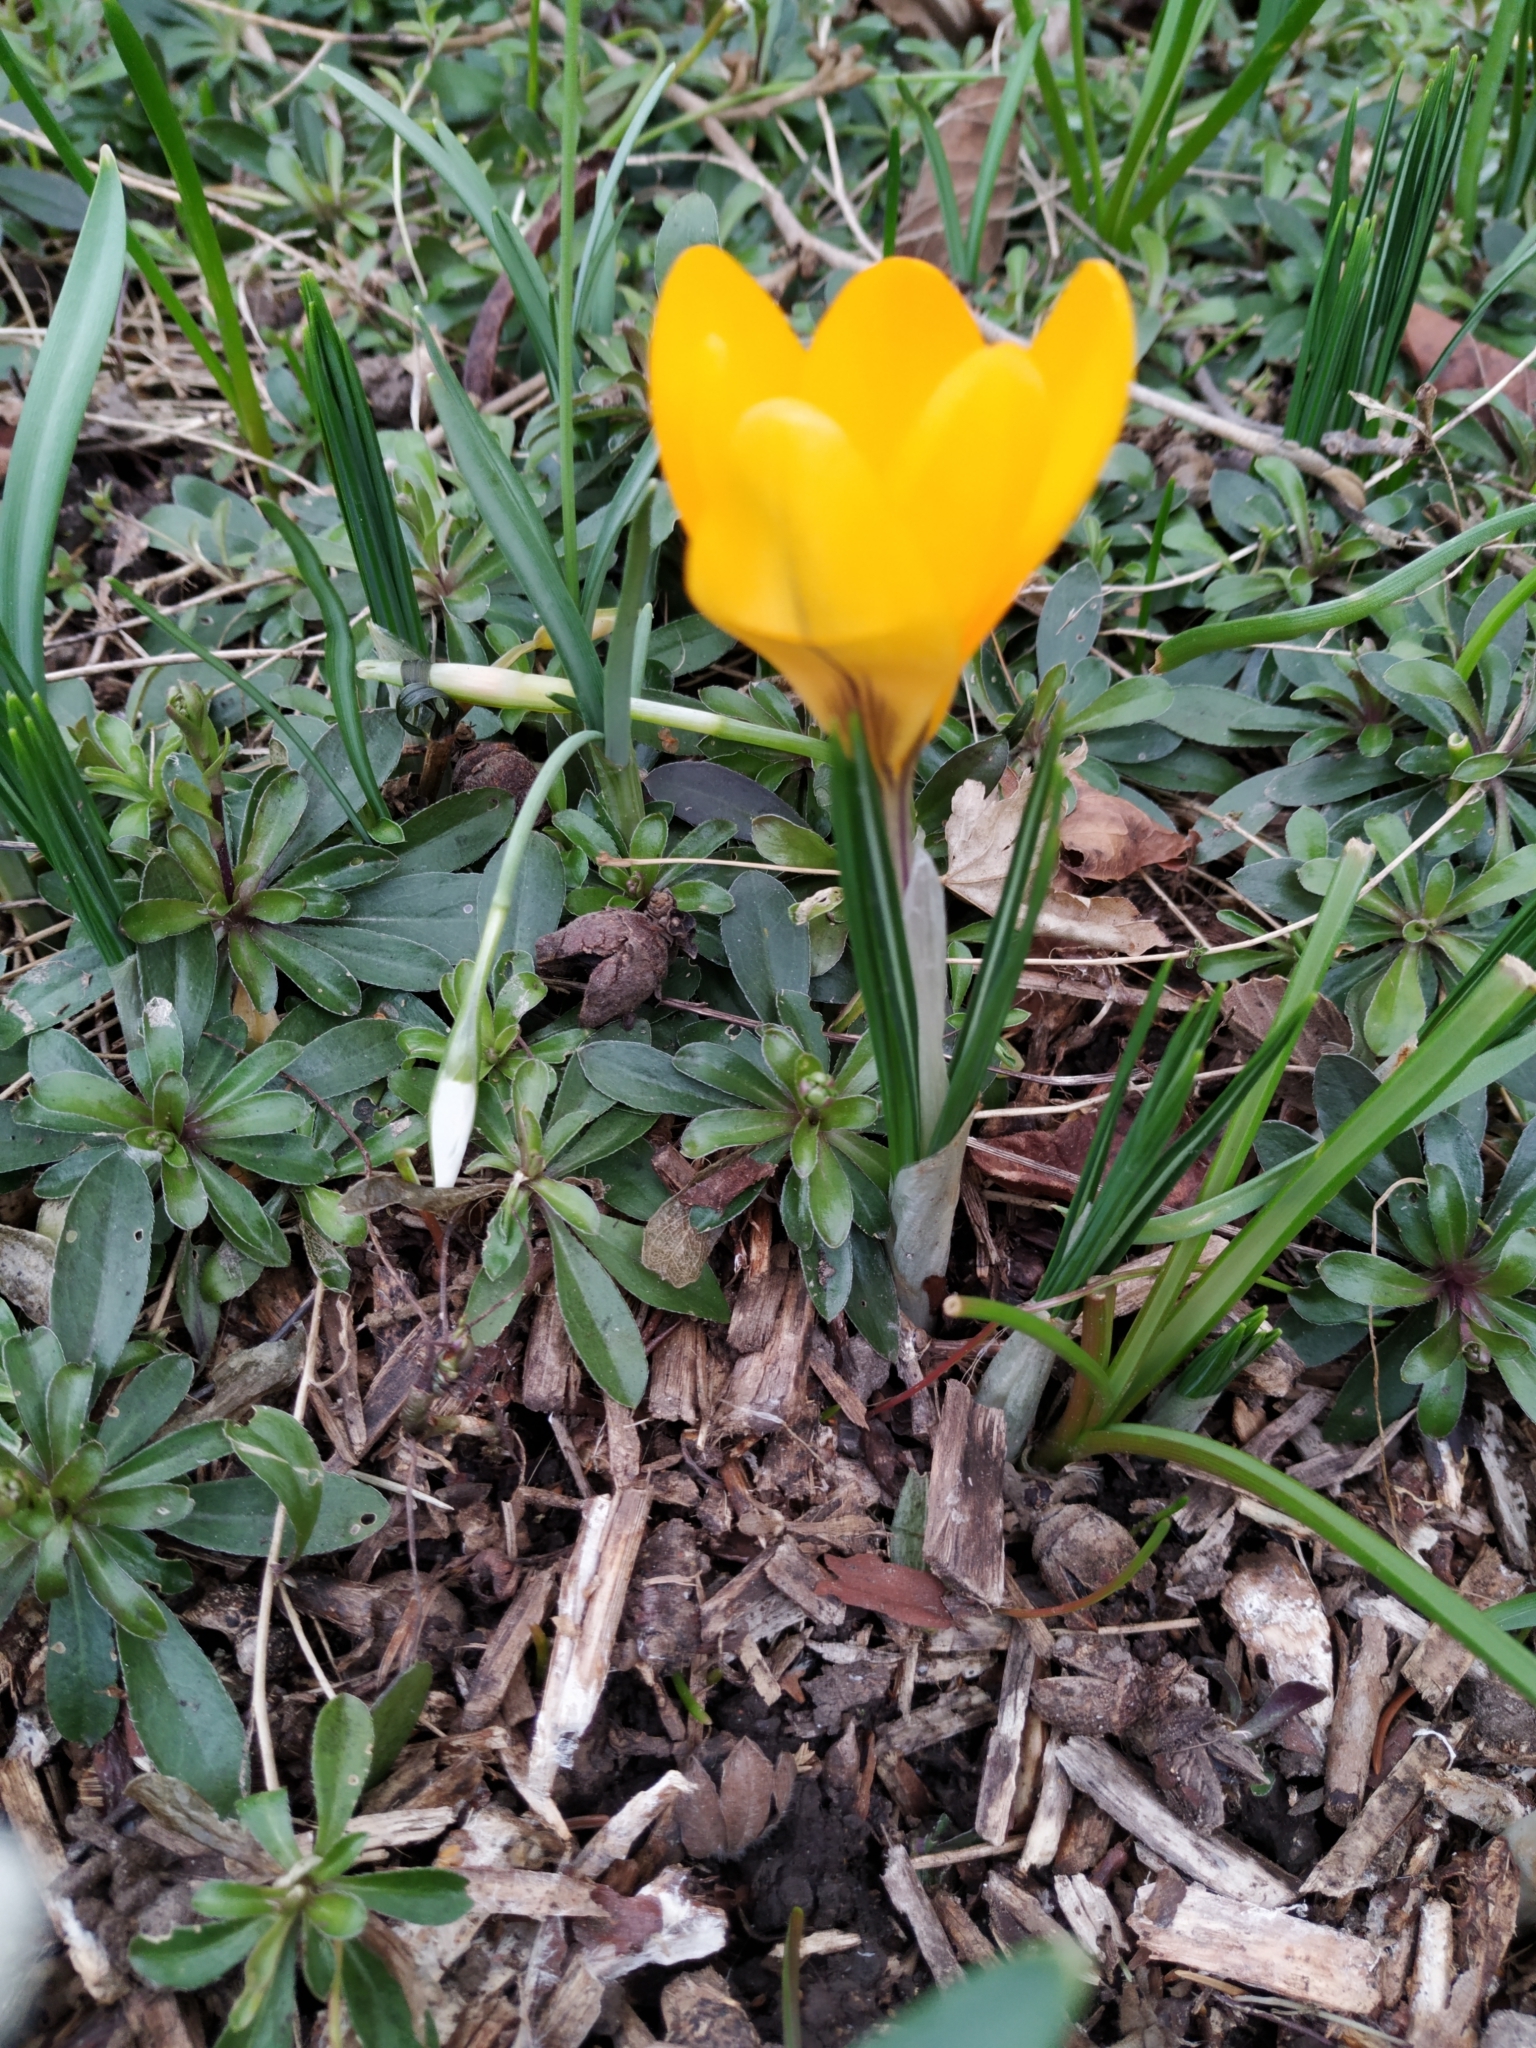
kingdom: Plantae
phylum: Tracheophyta
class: Liliopsida
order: Asparagales
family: Iridaceae
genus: Crocus
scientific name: Crocus luteus
